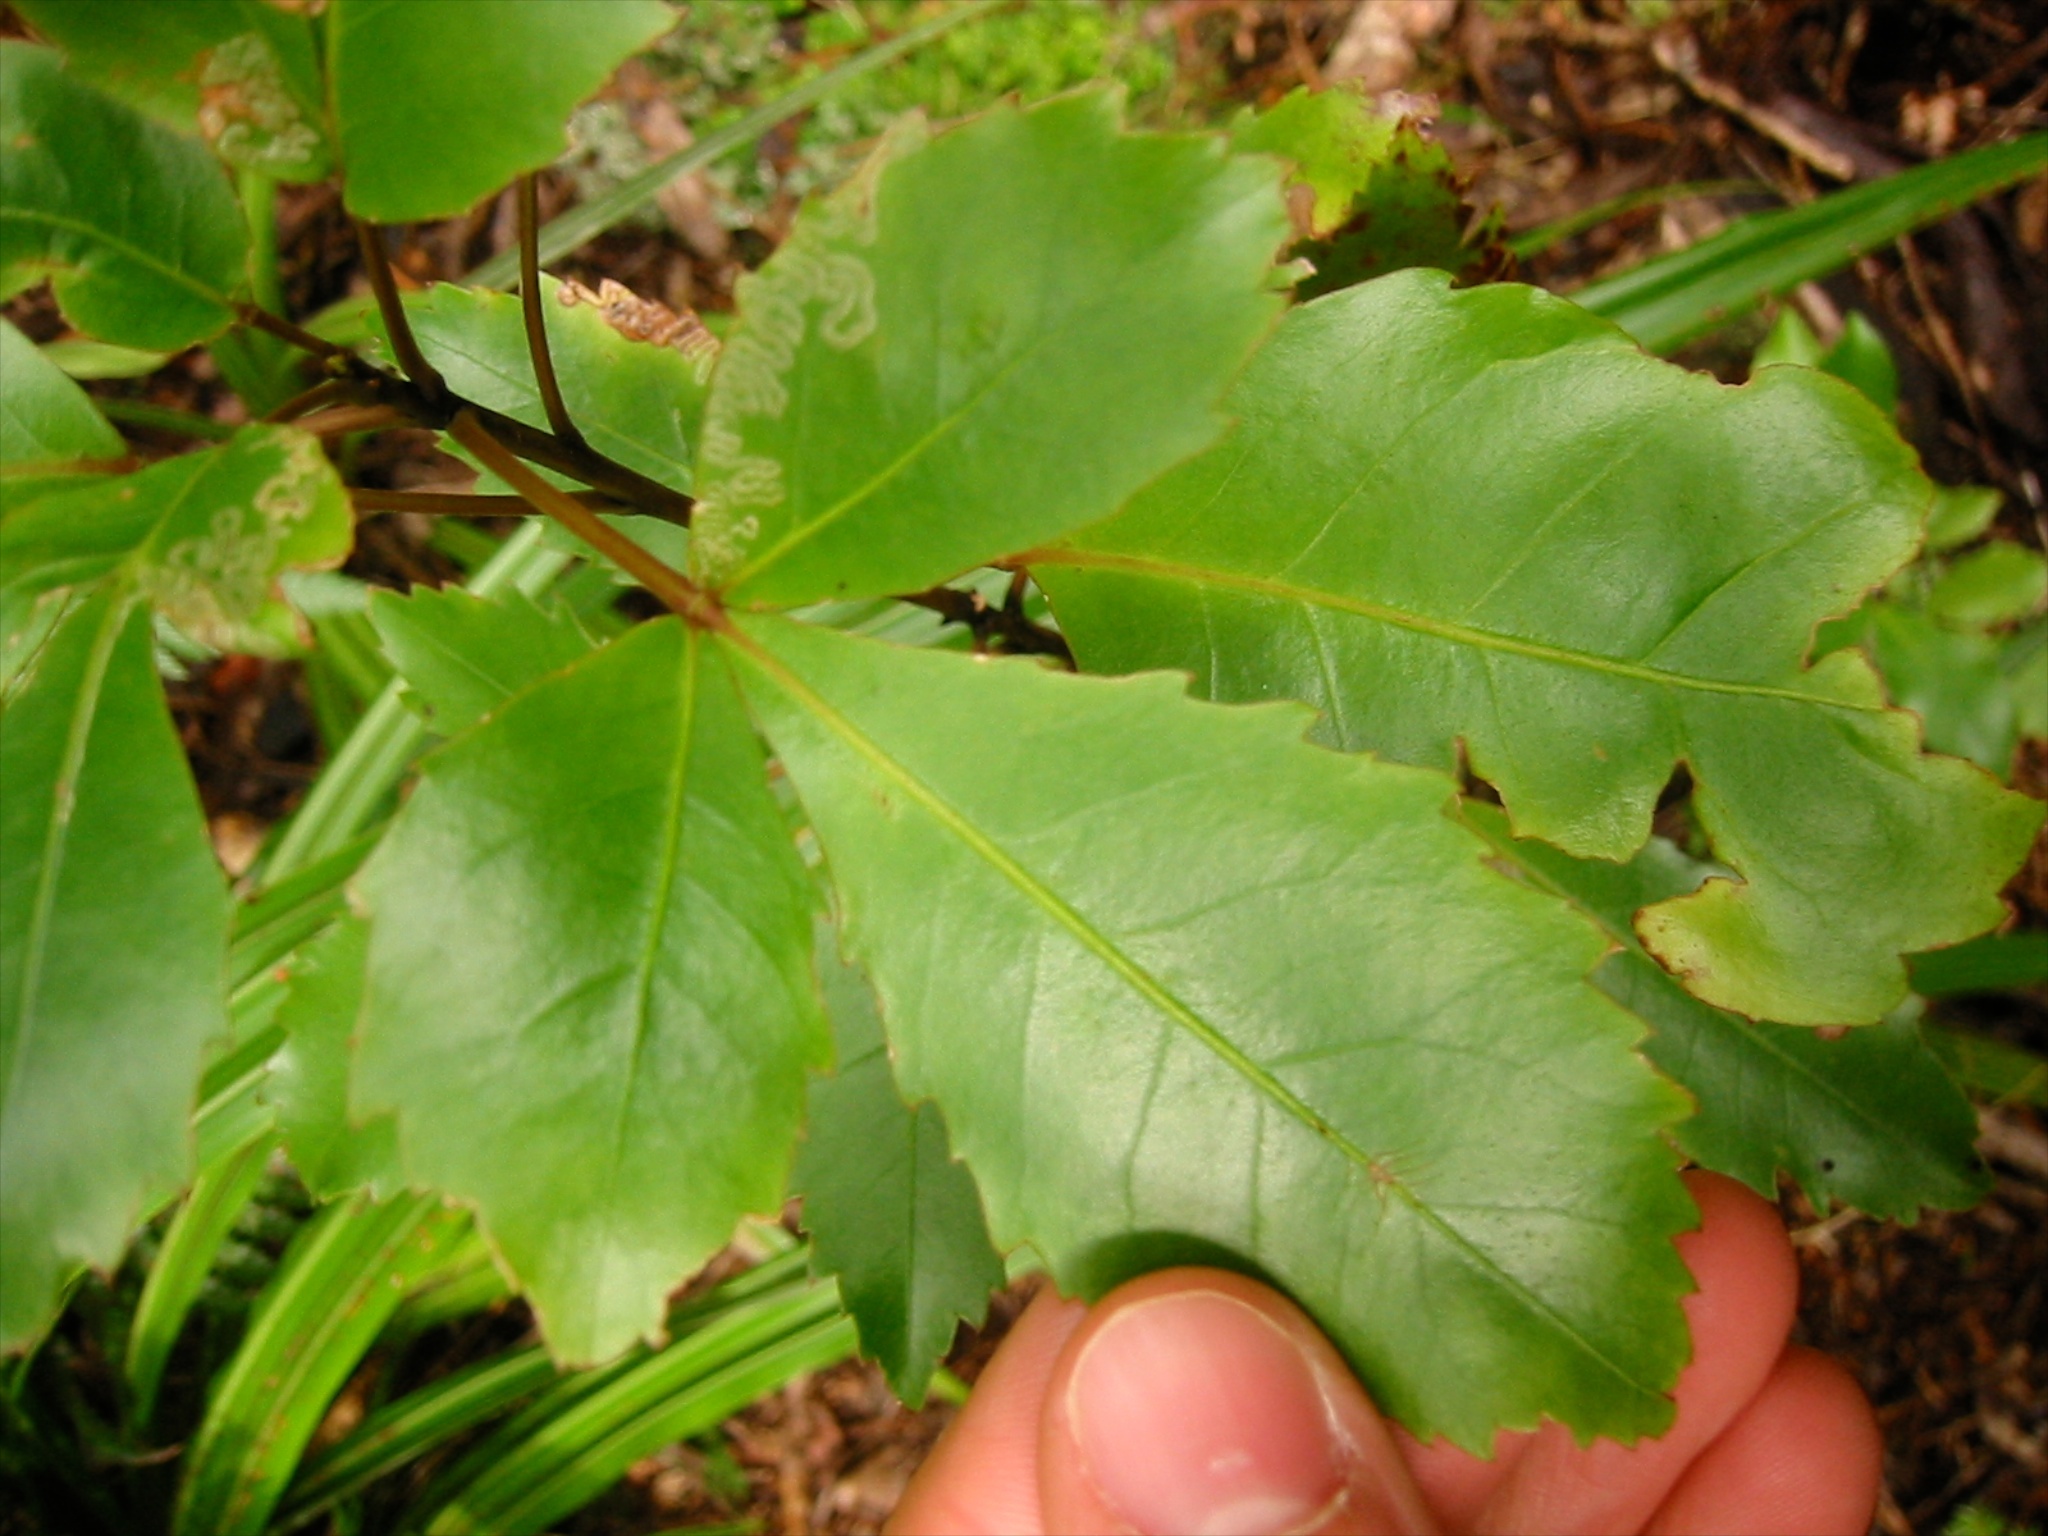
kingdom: Animalia
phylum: Arthropoda
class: Insecta
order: Lepidoptera
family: Gracillariidae
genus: Eumetriochroa
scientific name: Eumetriochroa panacivermiforma
